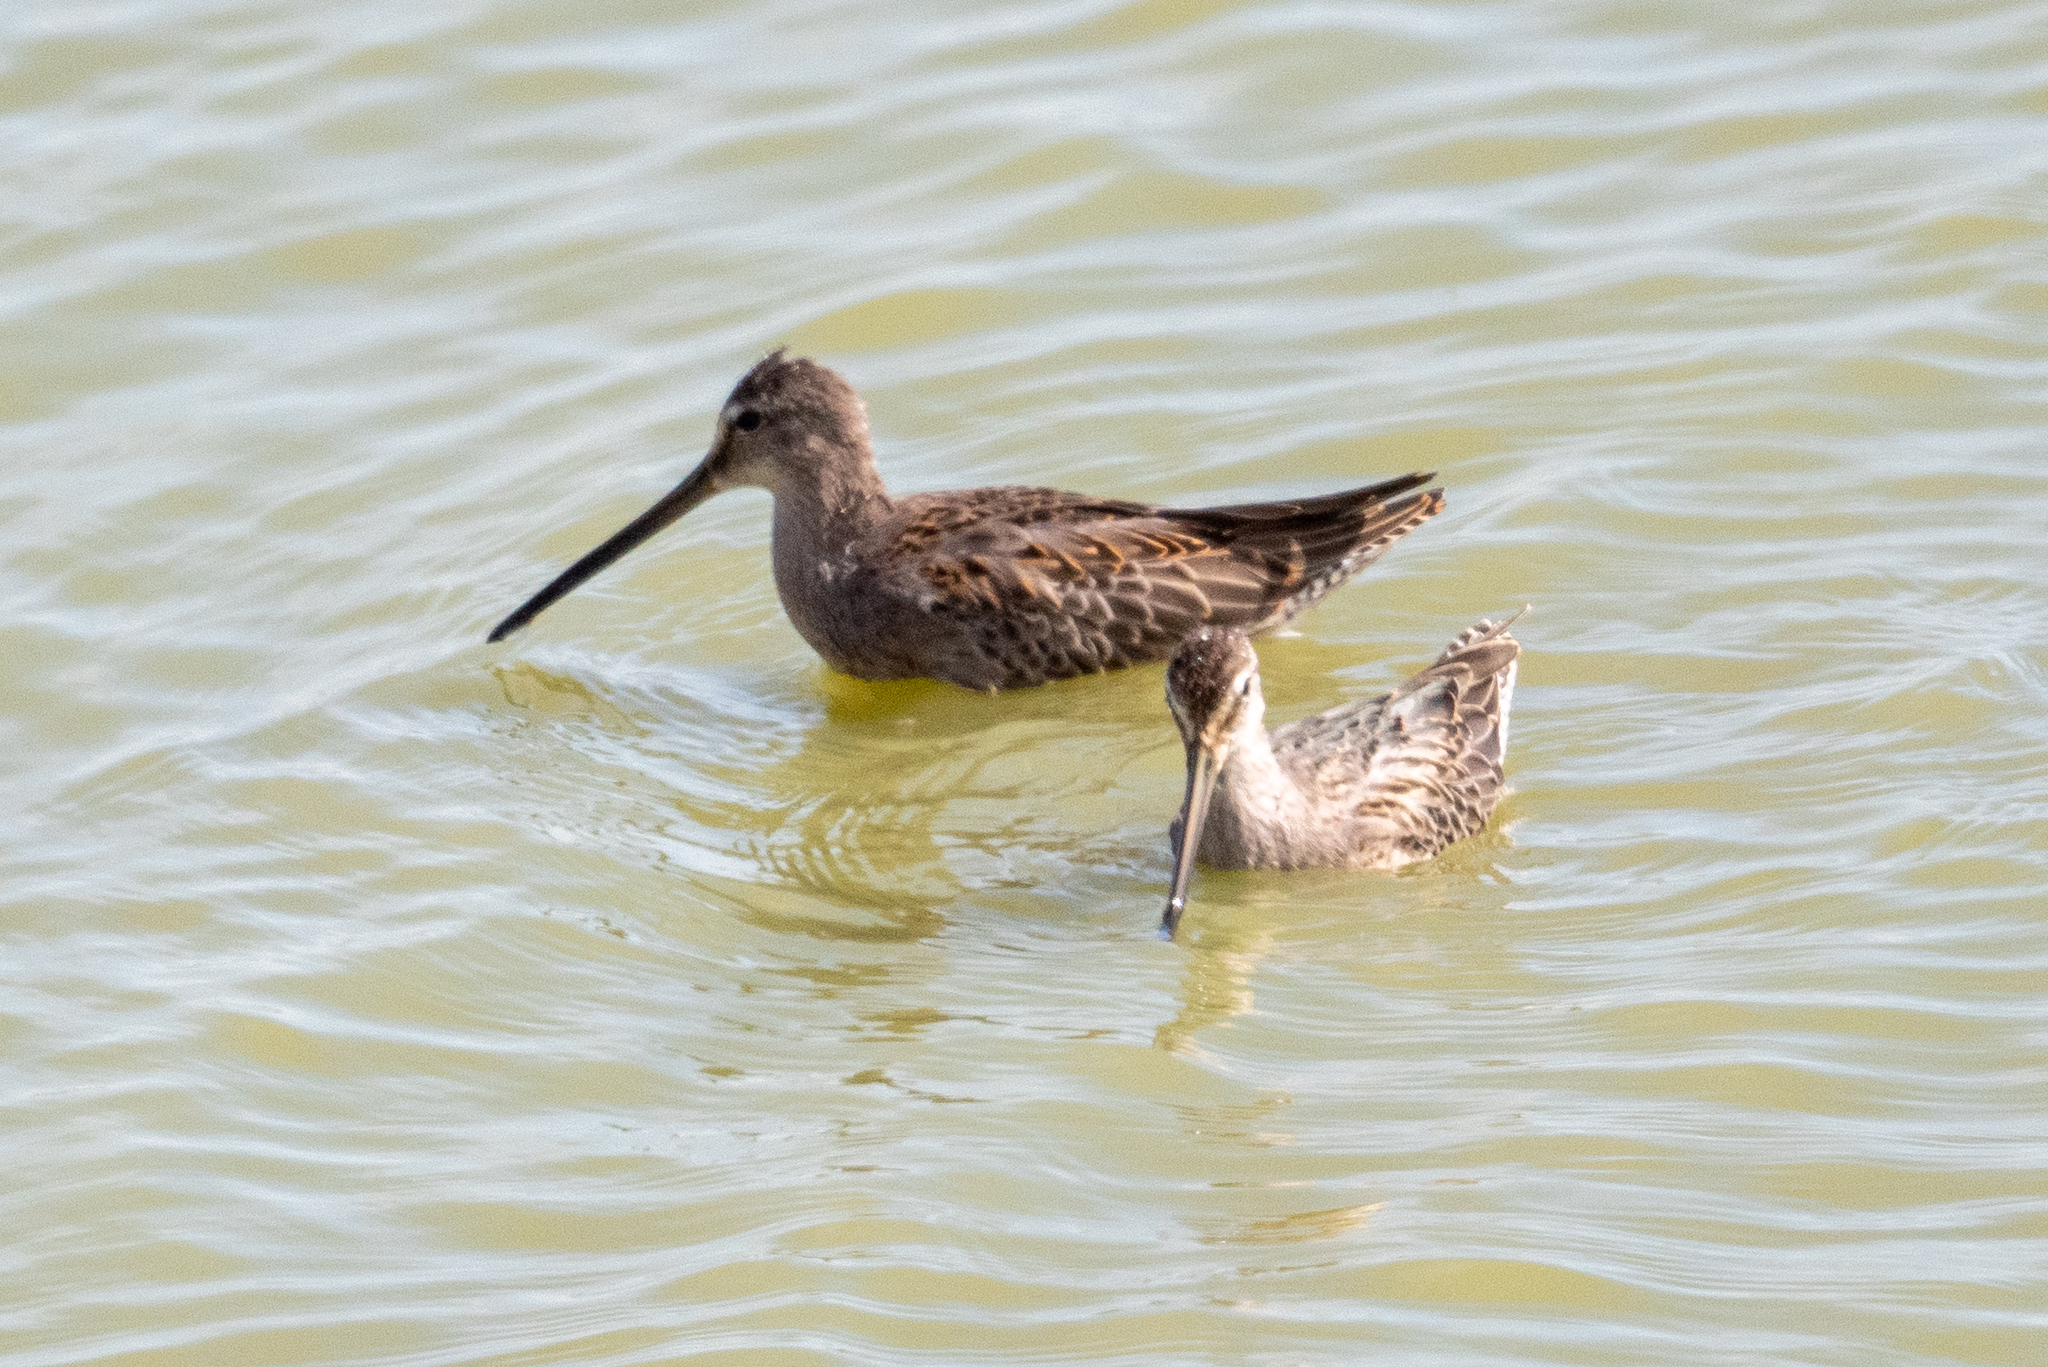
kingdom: Animalia
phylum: Chordata
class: Aves
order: Charadriiformes
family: Scolopacidae
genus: Limnodromus
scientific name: Limnodromus scolopaceus
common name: Long-billed dowitcher
